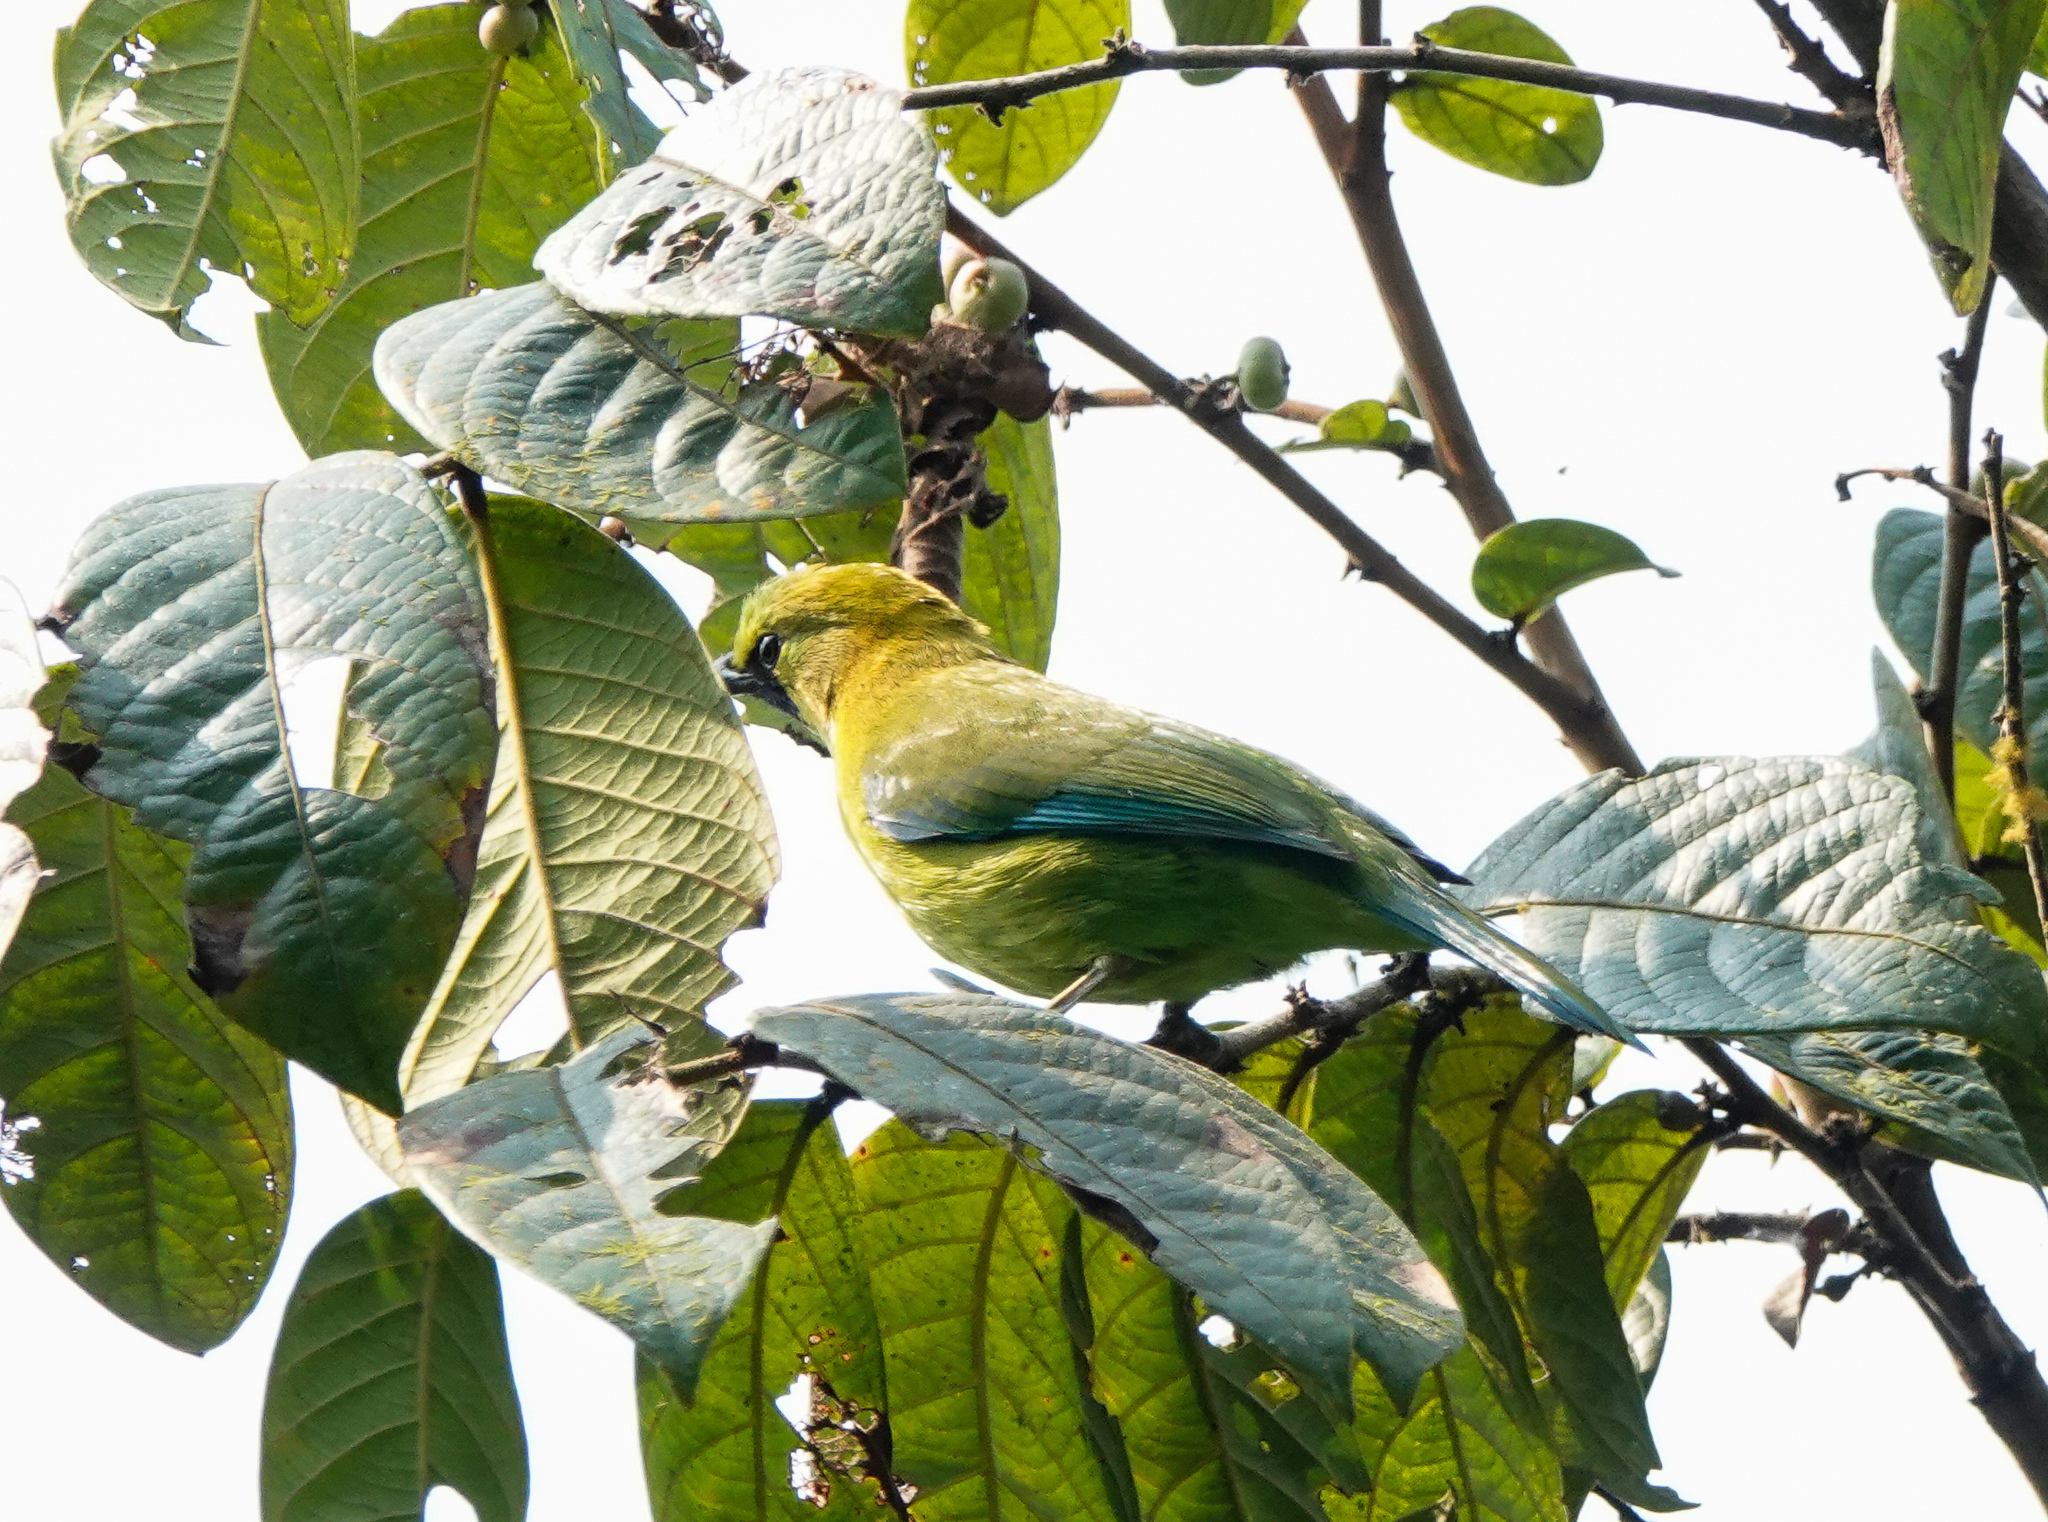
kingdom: Animalia
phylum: Chordata
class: Aves
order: Passeriformes
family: Chloropseidae
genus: Chloropsis
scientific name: Chloropsis moluccensis
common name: Blue-winged leafbird
